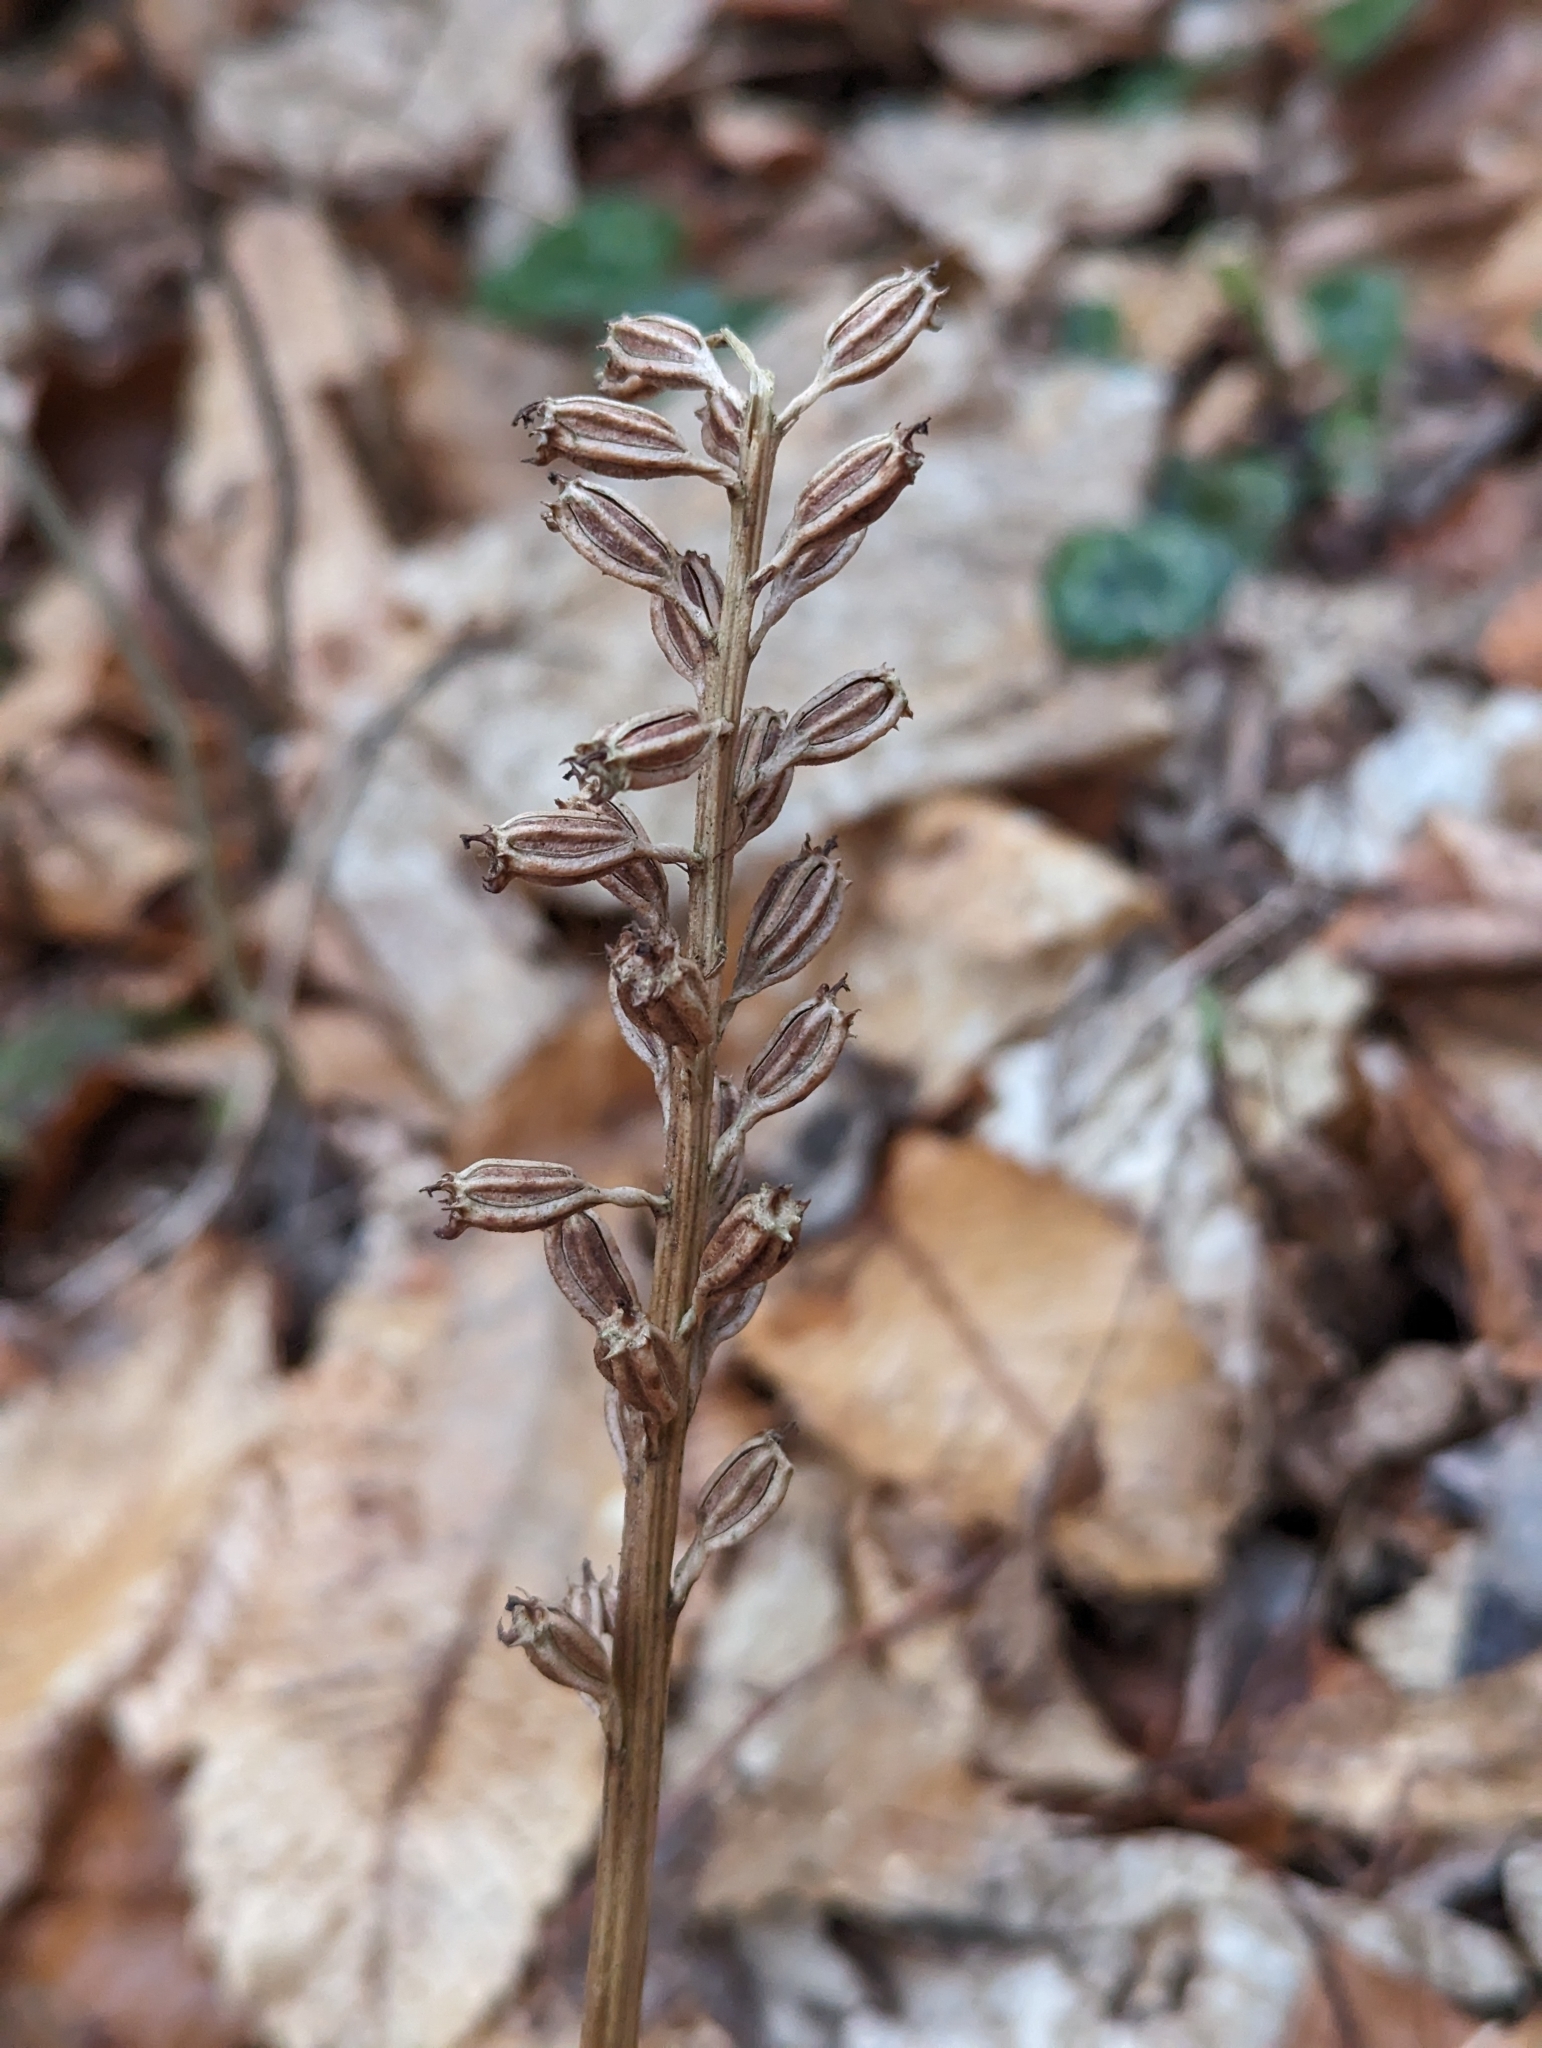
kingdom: Plantae
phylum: Tracheophyta
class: Liliopsida
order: Asparagales
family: Orchidaceae
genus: Neottia
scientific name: Neottia nidus-avis
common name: Bird's-nest orchid
